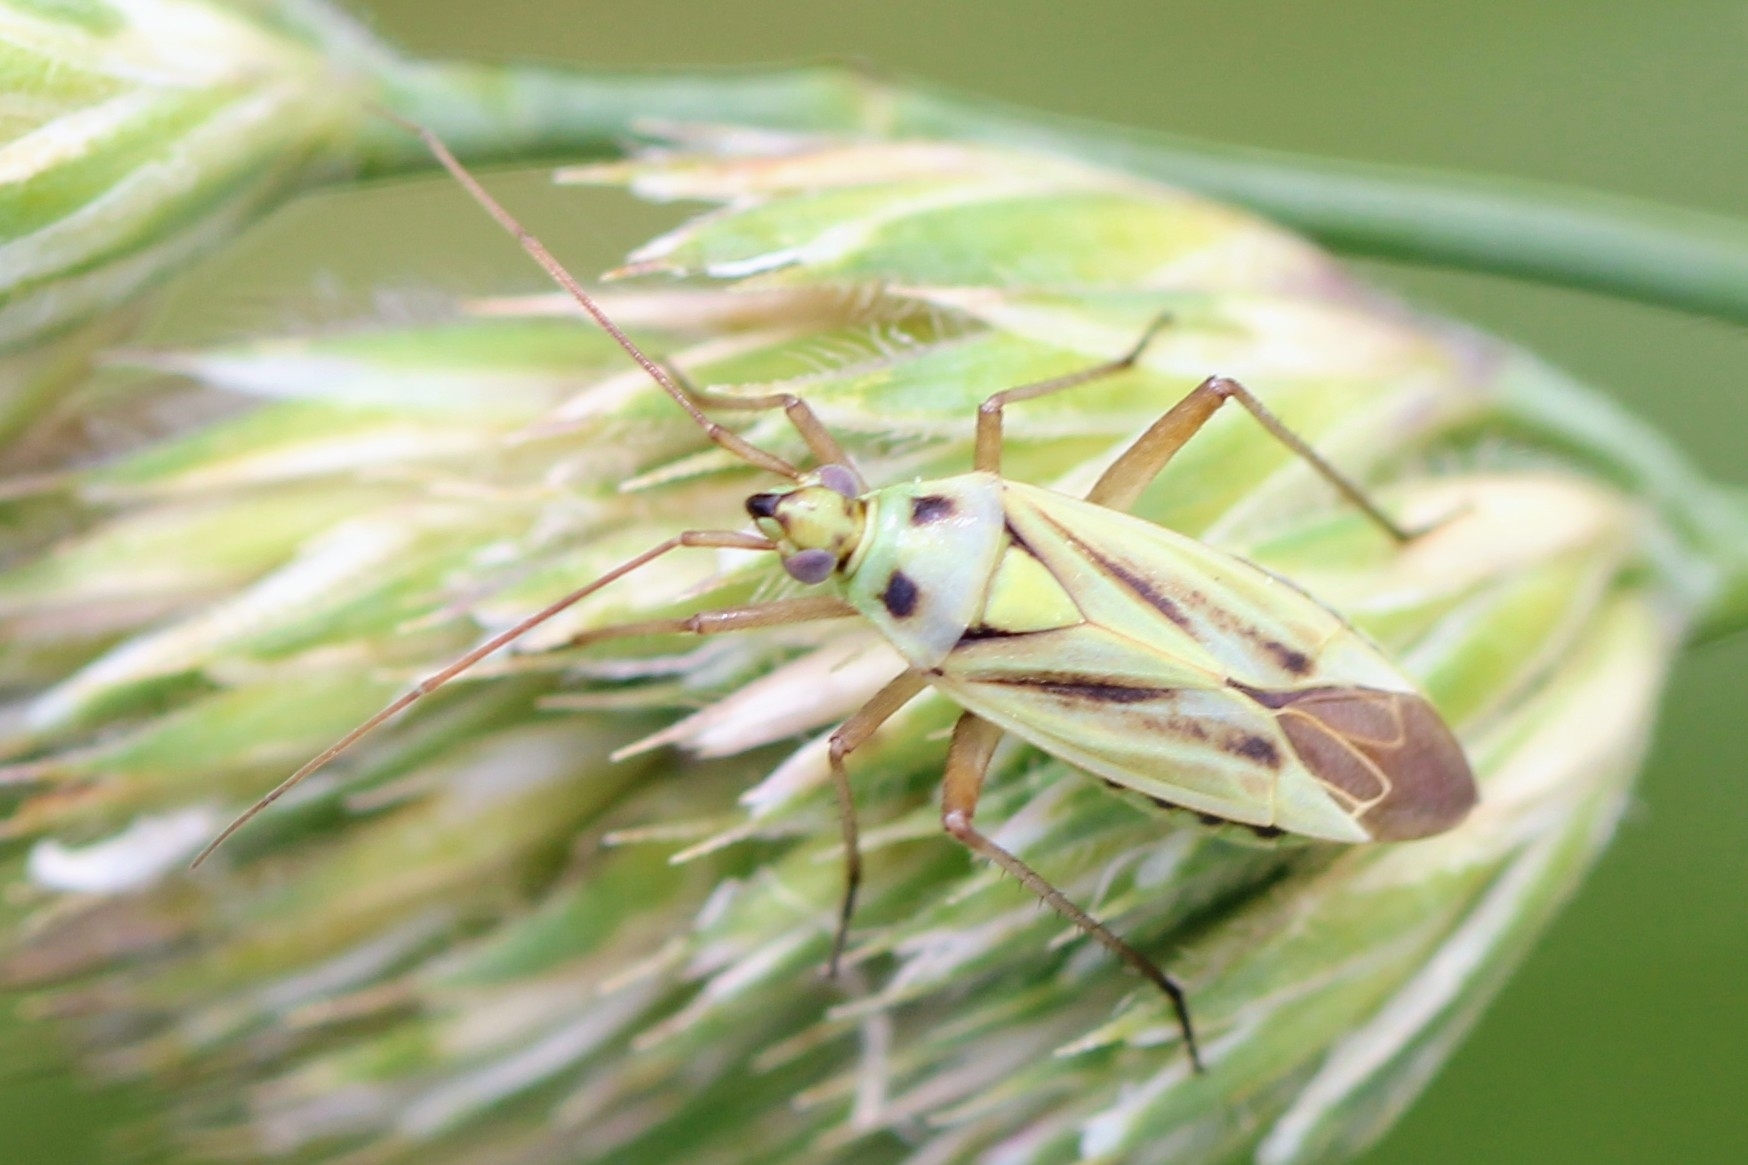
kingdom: Animalia
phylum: Arthropoda
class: Insecta
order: Hemiptera
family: Miridae
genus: Stenotus
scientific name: Stenotus binotatus
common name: Plant bug
